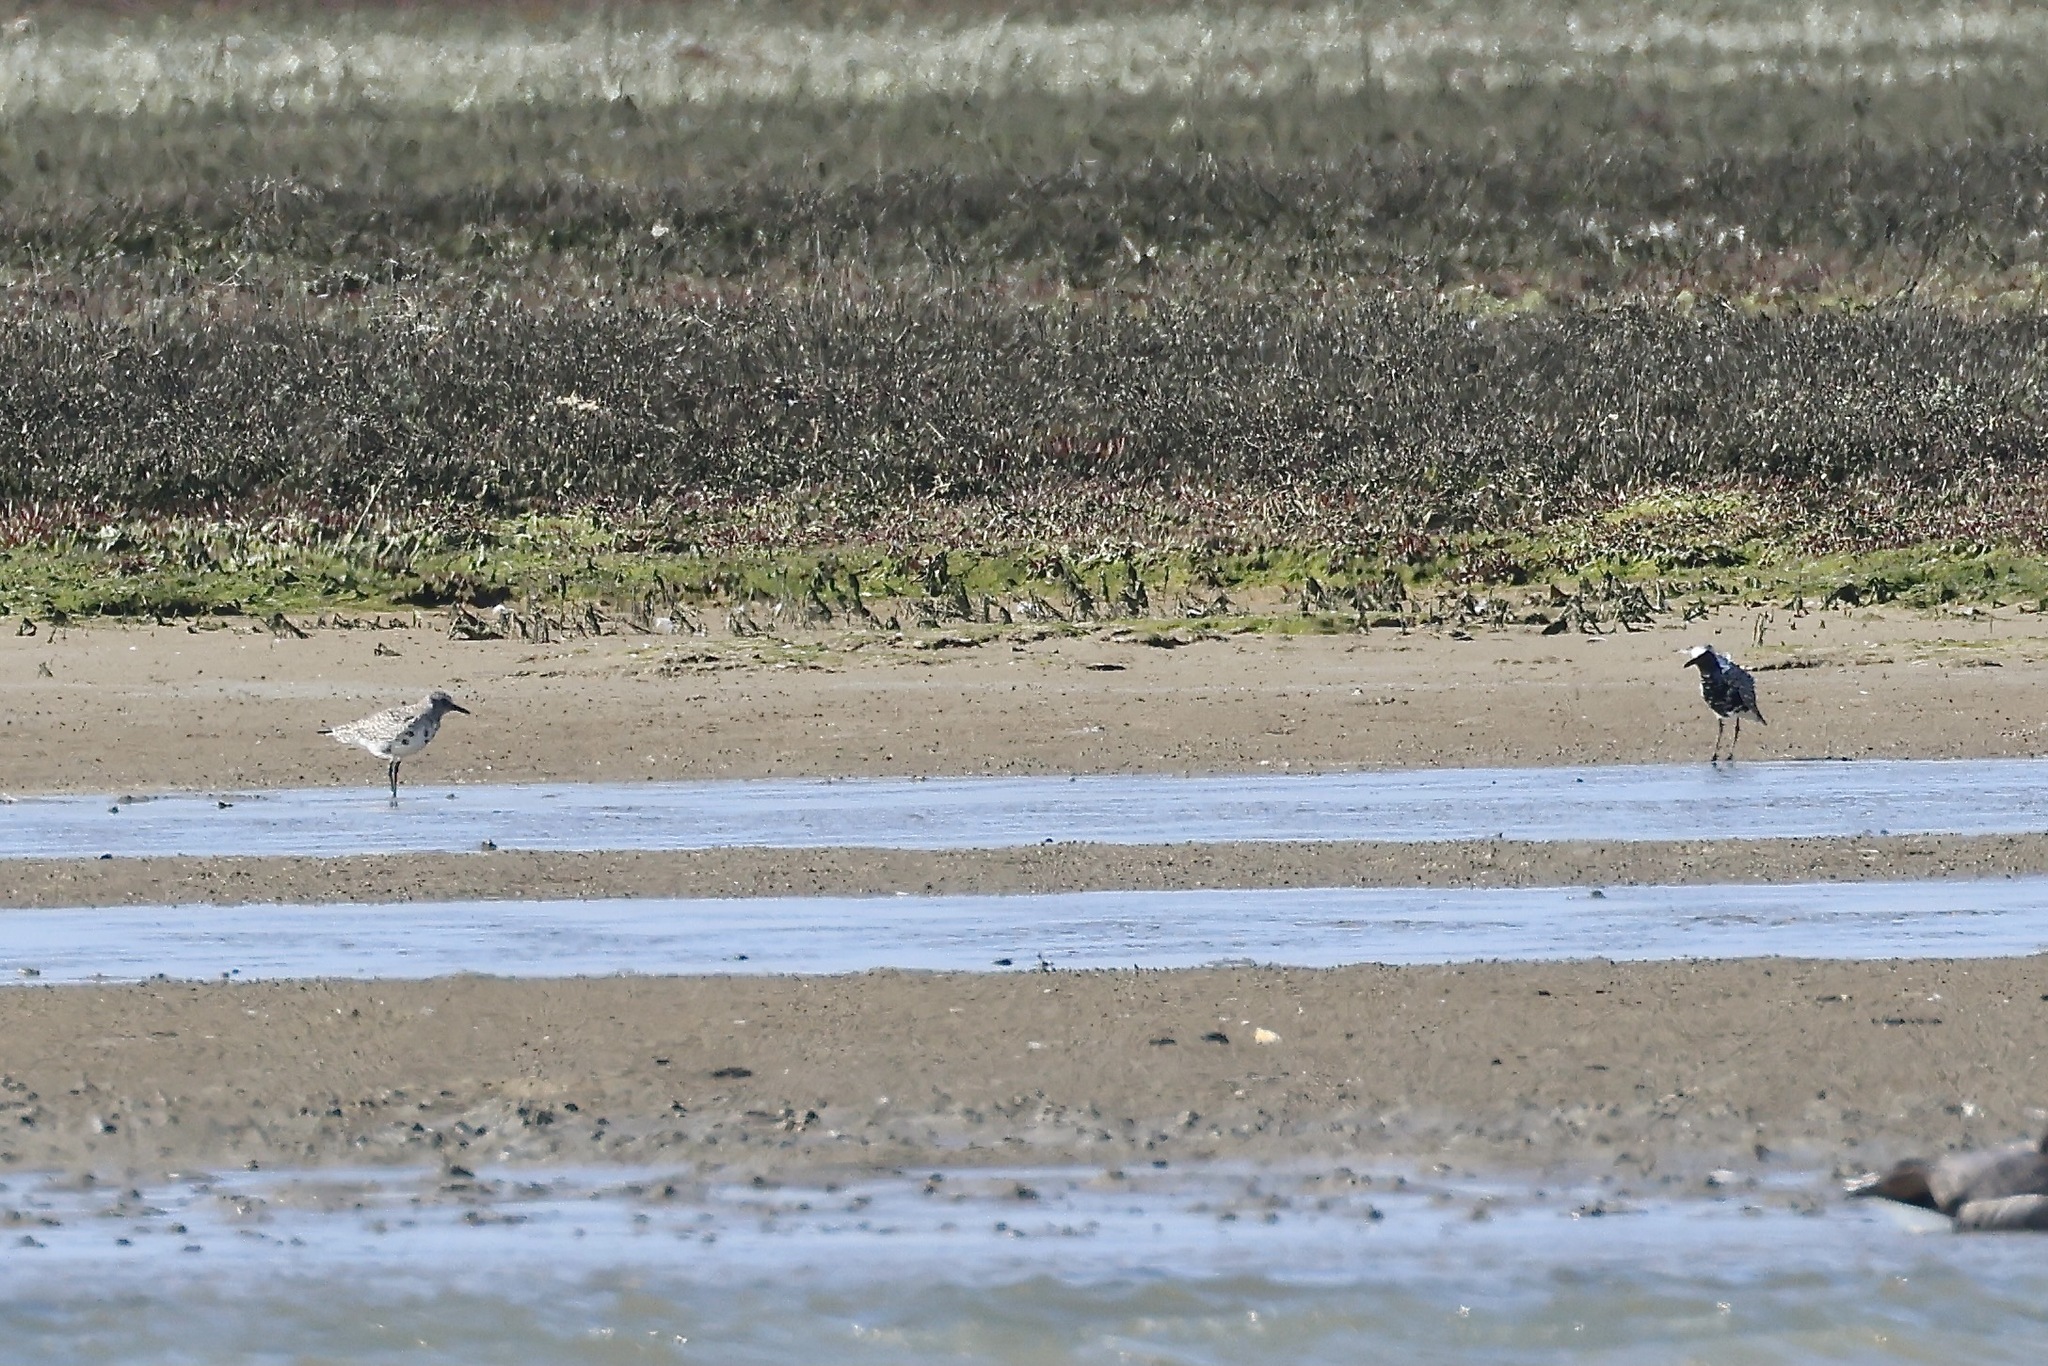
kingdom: Animalia
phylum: Chordata
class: Aves
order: Charadriiformes
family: Charadriidae
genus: Pluvialis
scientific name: Pluvialis squatarola
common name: Grey plover
